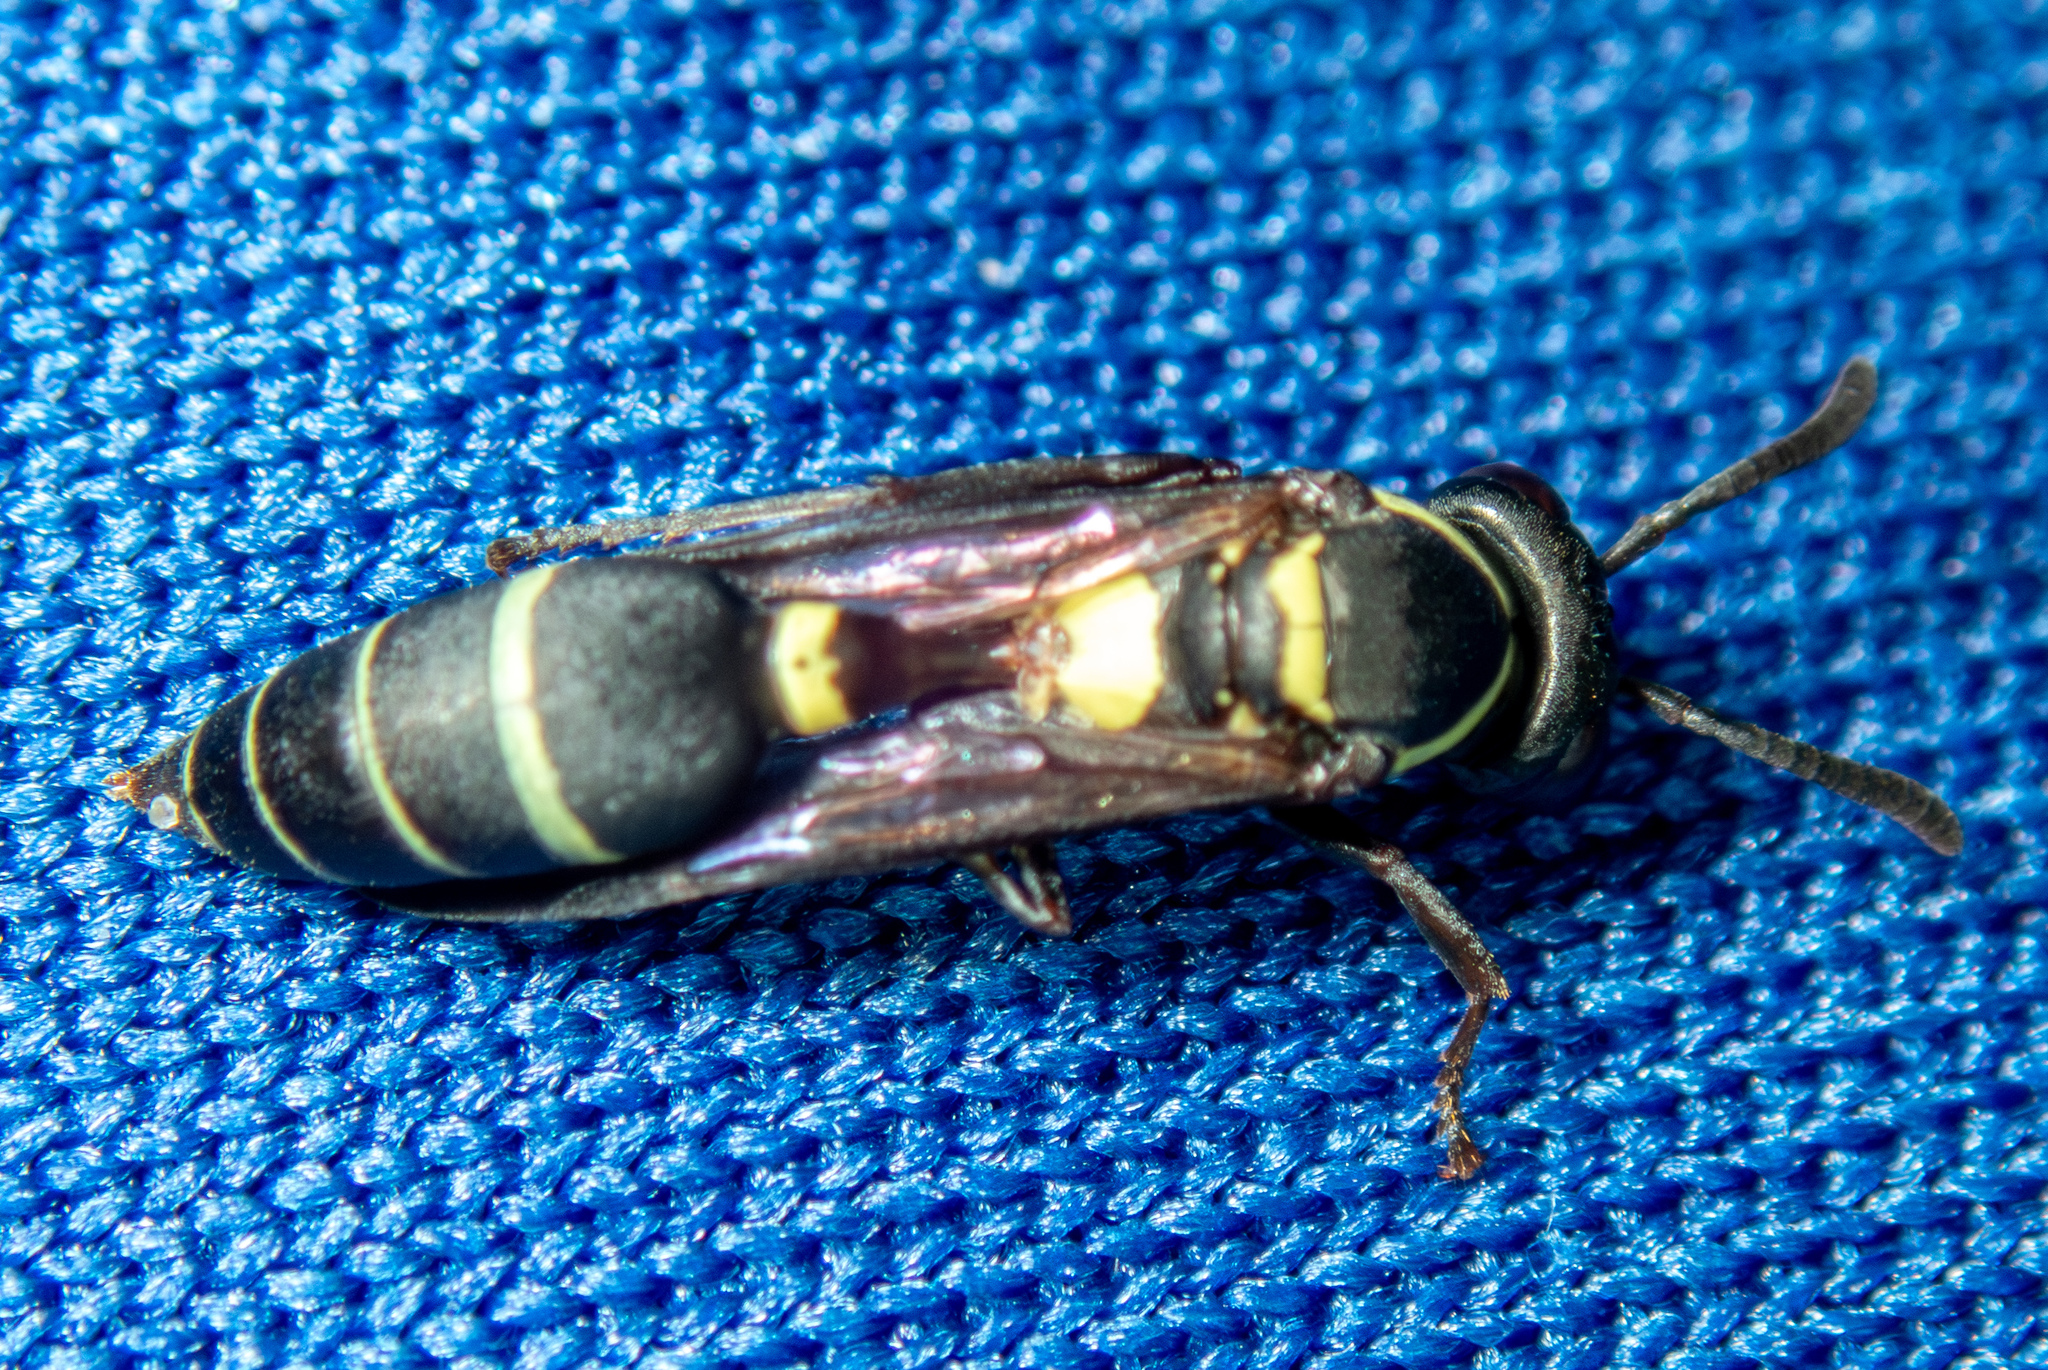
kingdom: Animalia
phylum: Arthropoda
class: Insecta
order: Hymenoptera
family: Eumenidae
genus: Polybia
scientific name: Polybia occidentalis
